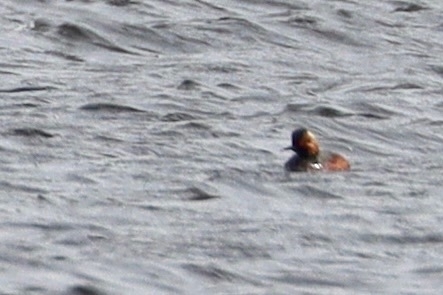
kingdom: Animalia
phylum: Chordata
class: Aves
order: Podicipediformes
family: Podicipedidae
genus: Podiceps
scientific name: Podiceps nigricollis
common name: Black-necked grebe
